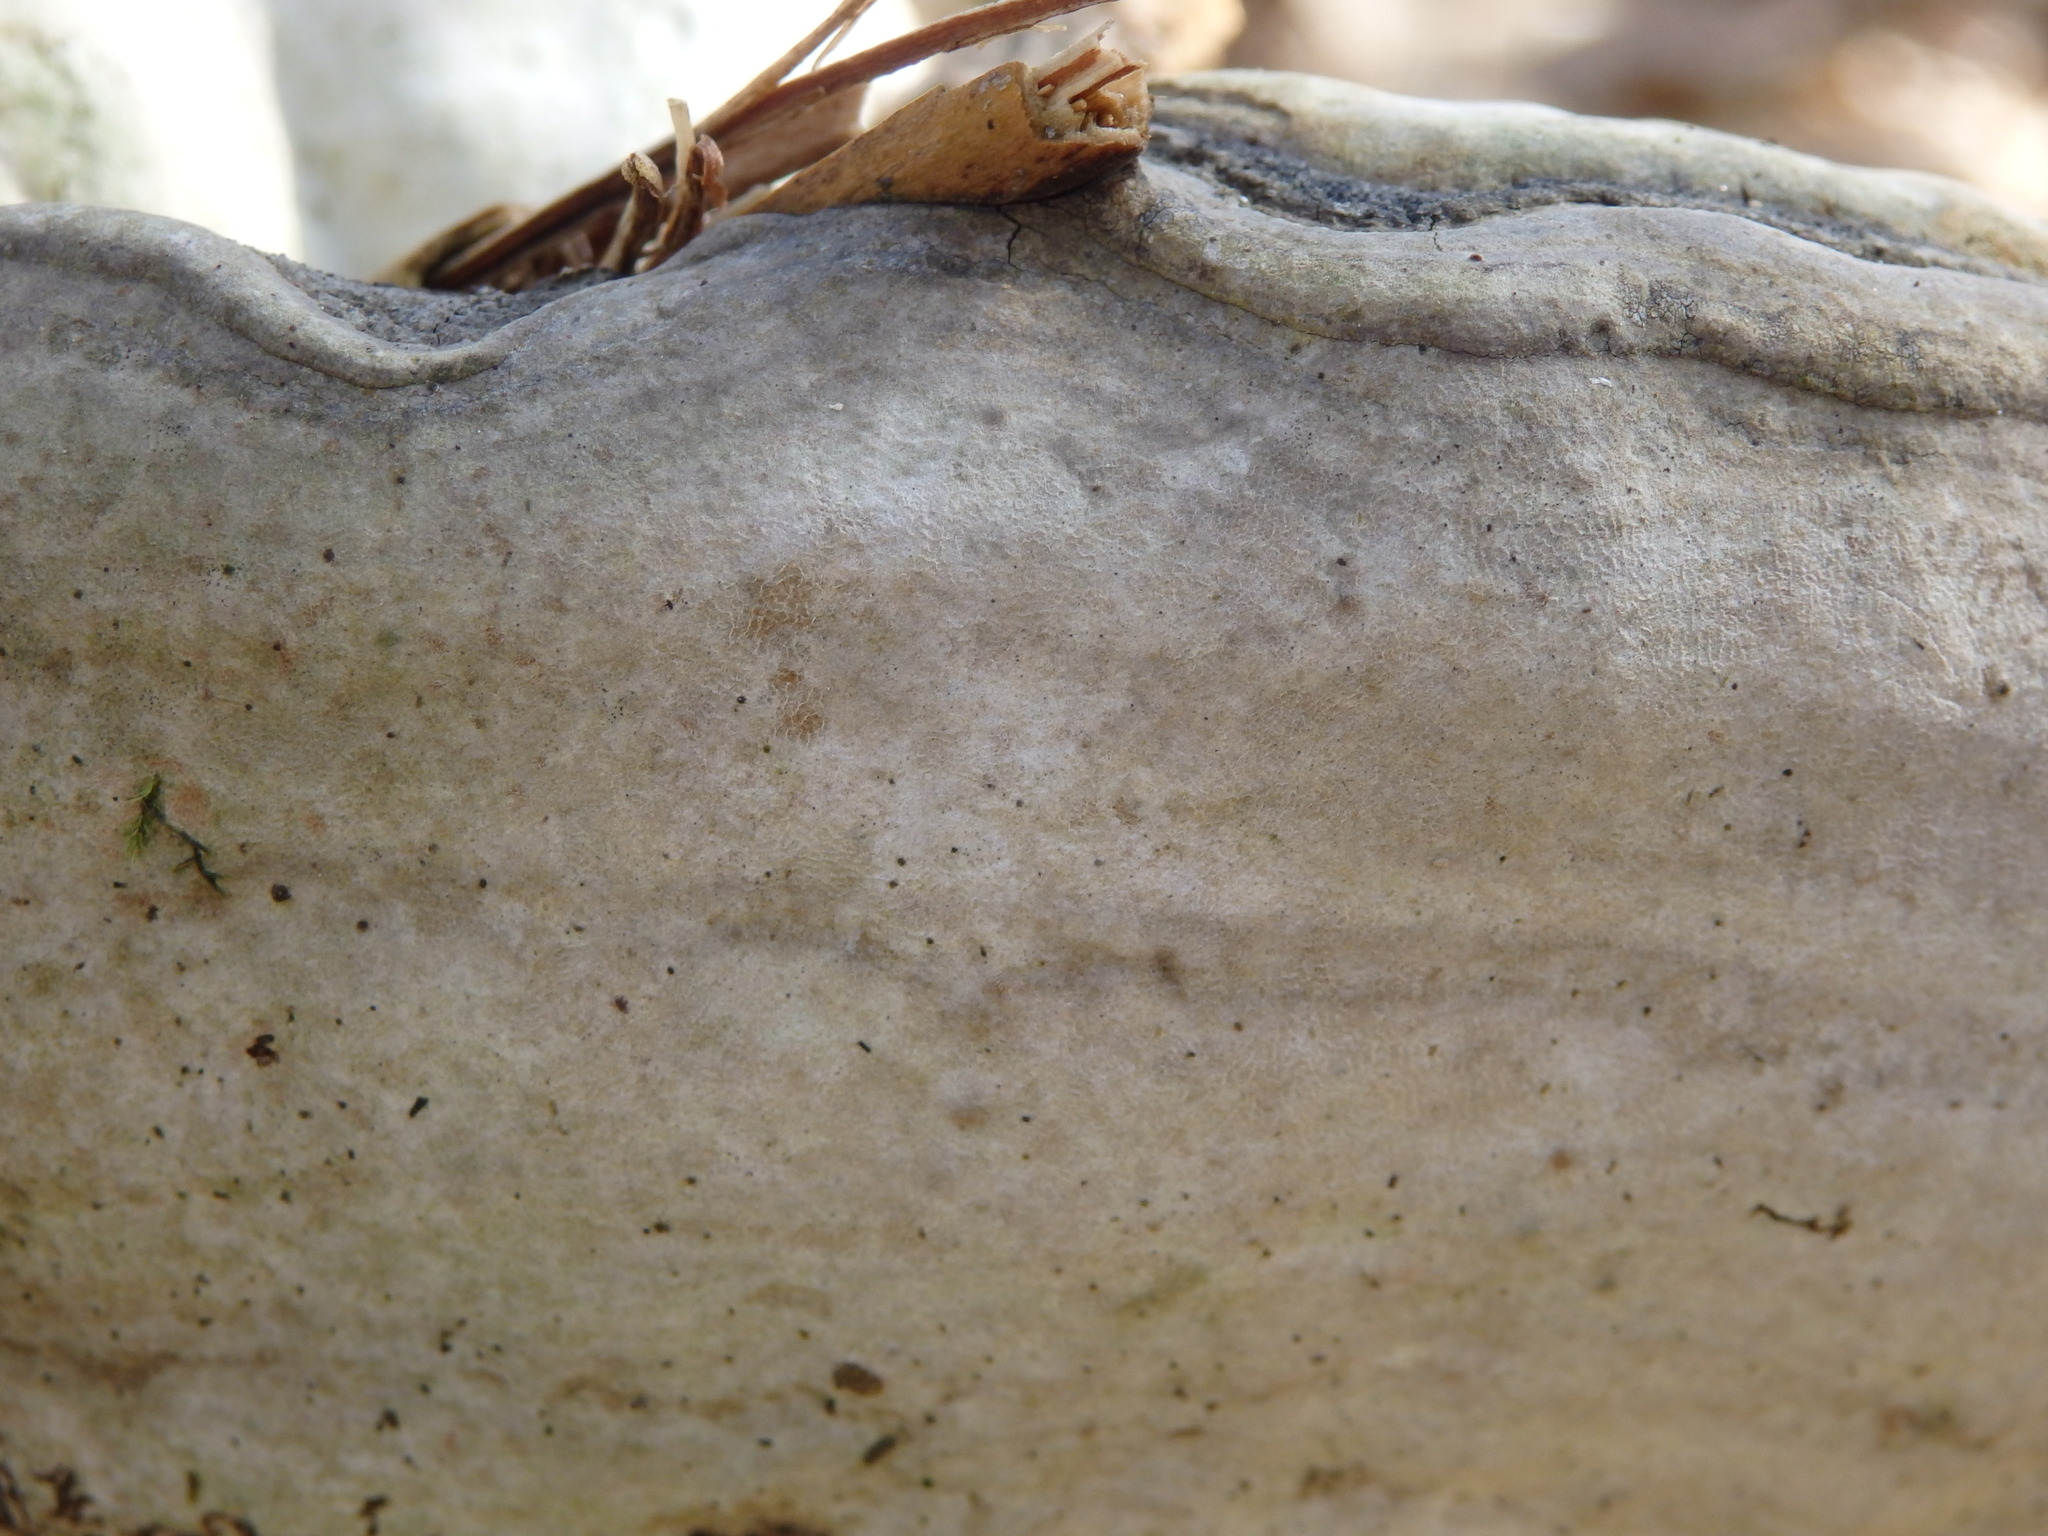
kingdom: Fungi
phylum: Basidiomycota
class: Agaricomycetes
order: Polyporales
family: Polyporaceae
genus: Fomes
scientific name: Fomes fomentarius
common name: Hoof fungus
